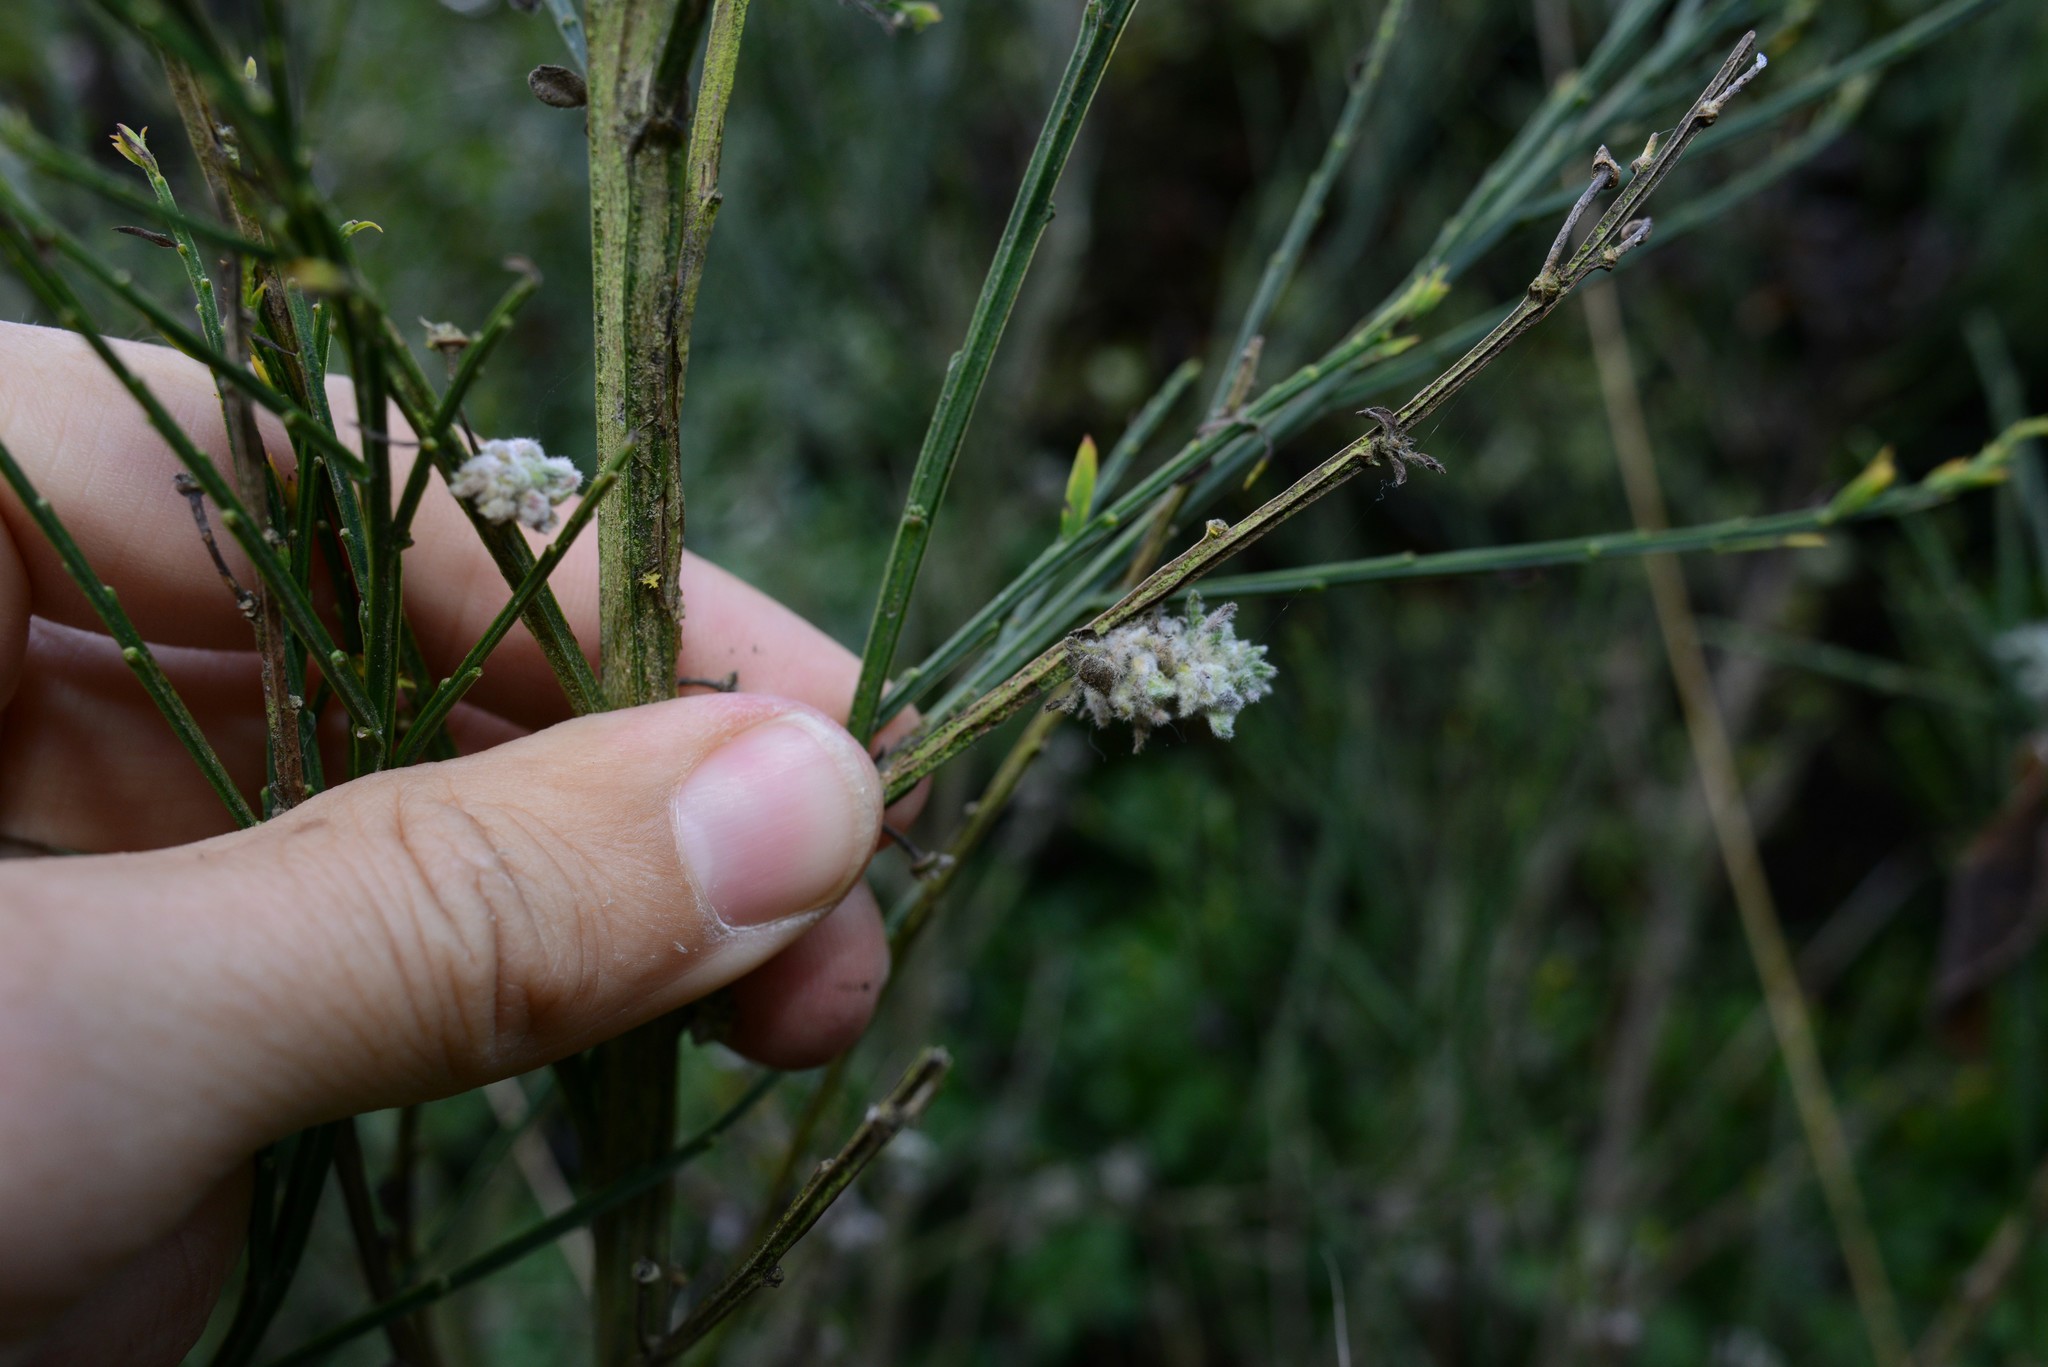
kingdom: Animalia
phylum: Arthropoda
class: Arachnida
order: Trombidiformes
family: Eriophyidae
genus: Aceria
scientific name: Aceria genistae
